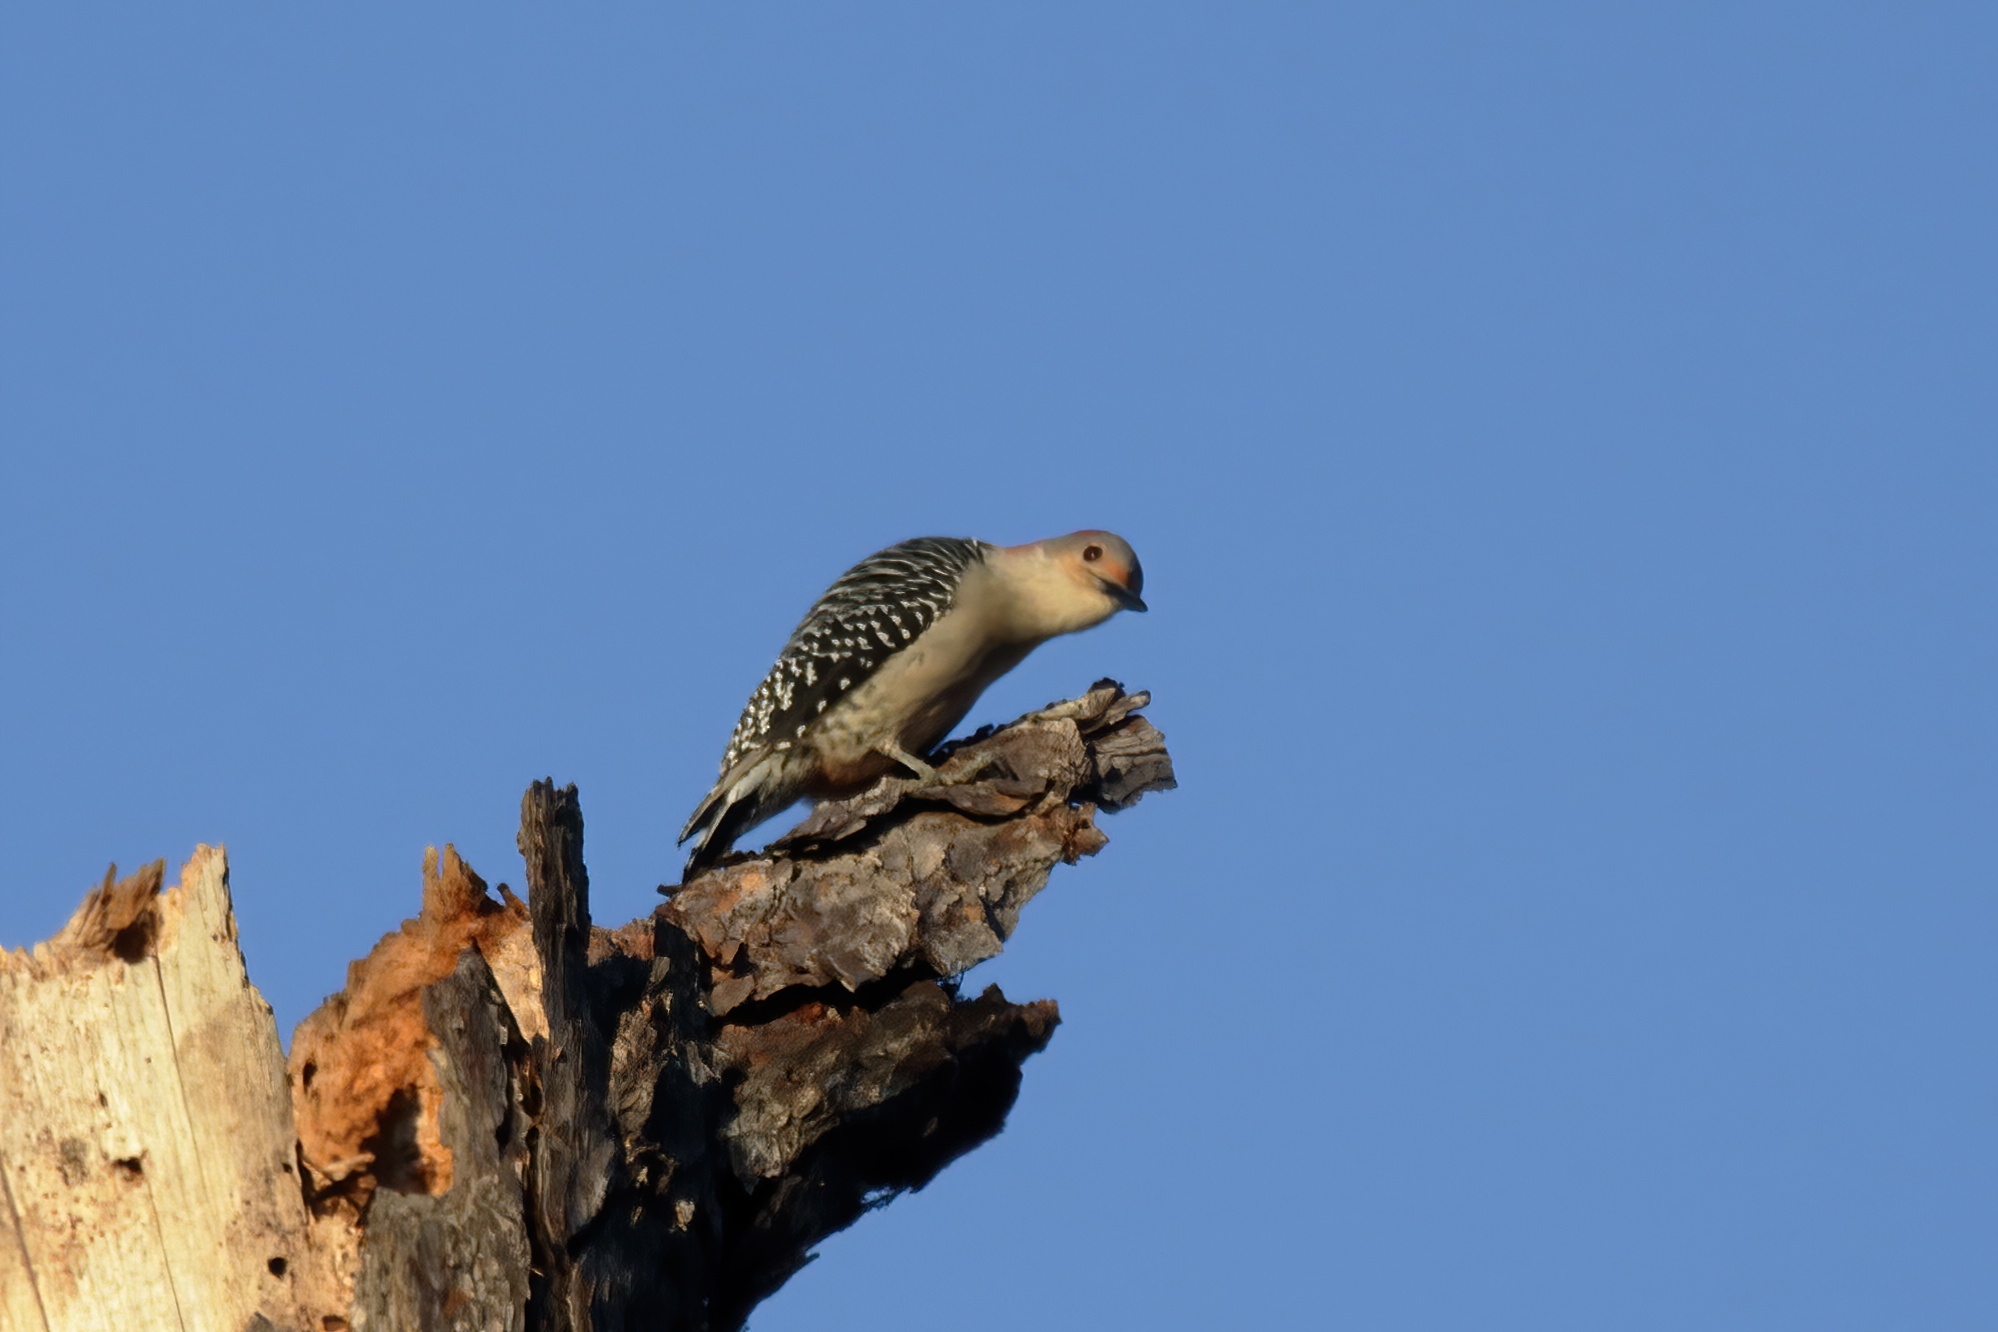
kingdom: Animalia
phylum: Chordata
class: Aves
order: Piciformes
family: Picidae
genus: Melanerpes
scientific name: Melanerpes carolinus
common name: Red-bellied woodpecker
